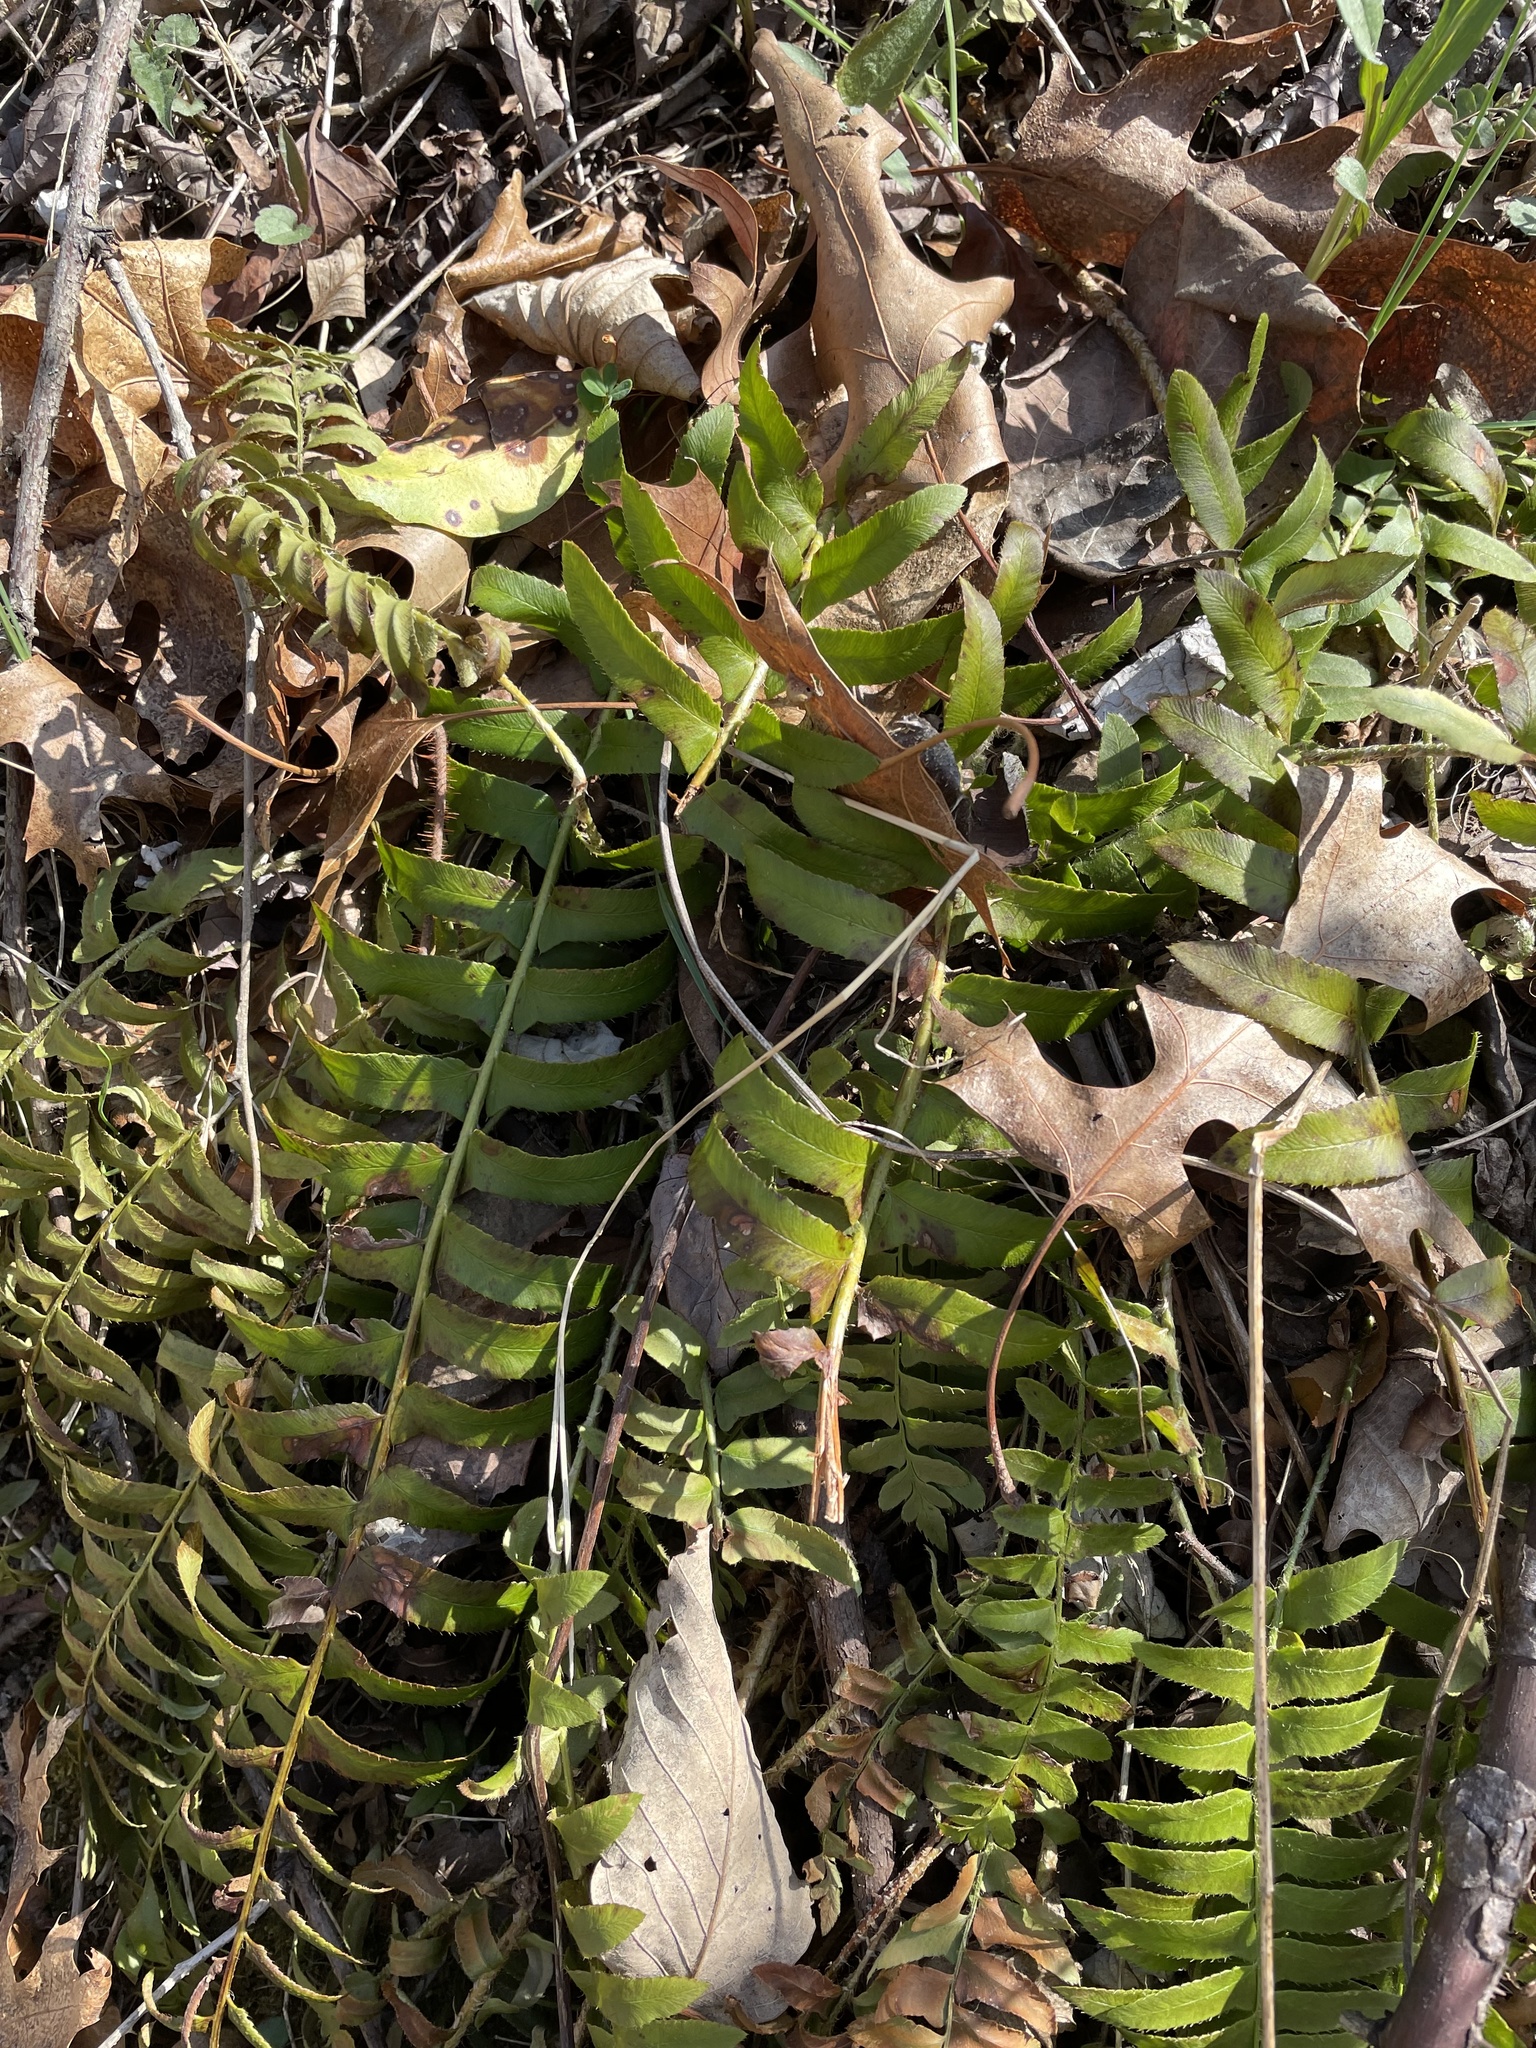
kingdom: Plantae
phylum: Tracheophyta
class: Polypodiopsida
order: Polypodiales
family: Dryopteridaceae
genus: Polystichum
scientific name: Polystichum acrostichoides
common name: Christmas fern
